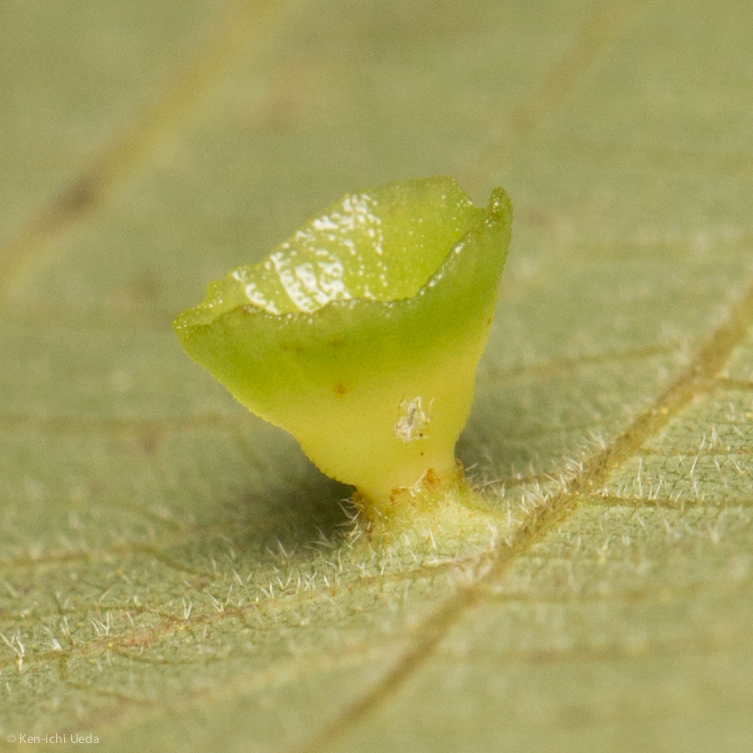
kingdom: Animalia
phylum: Arthropoda
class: Insecta
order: Diptera
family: Cecidomyiidae
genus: Caryomyia
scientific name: Caryomyia flaticrustum
